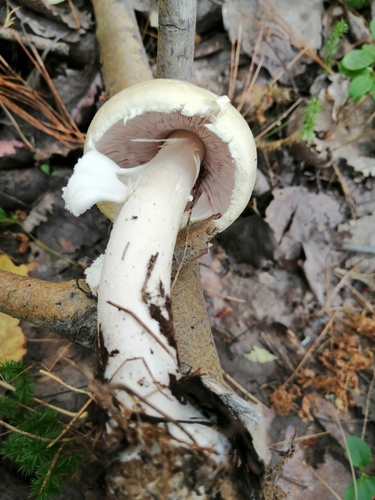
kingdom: Fungi
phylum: Basidiomycota
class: Agaricomycetes
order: Agaricales
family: Agaricaceae
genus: Agaricus
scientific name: Agaricus sylvicola
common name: Wood mushroom
